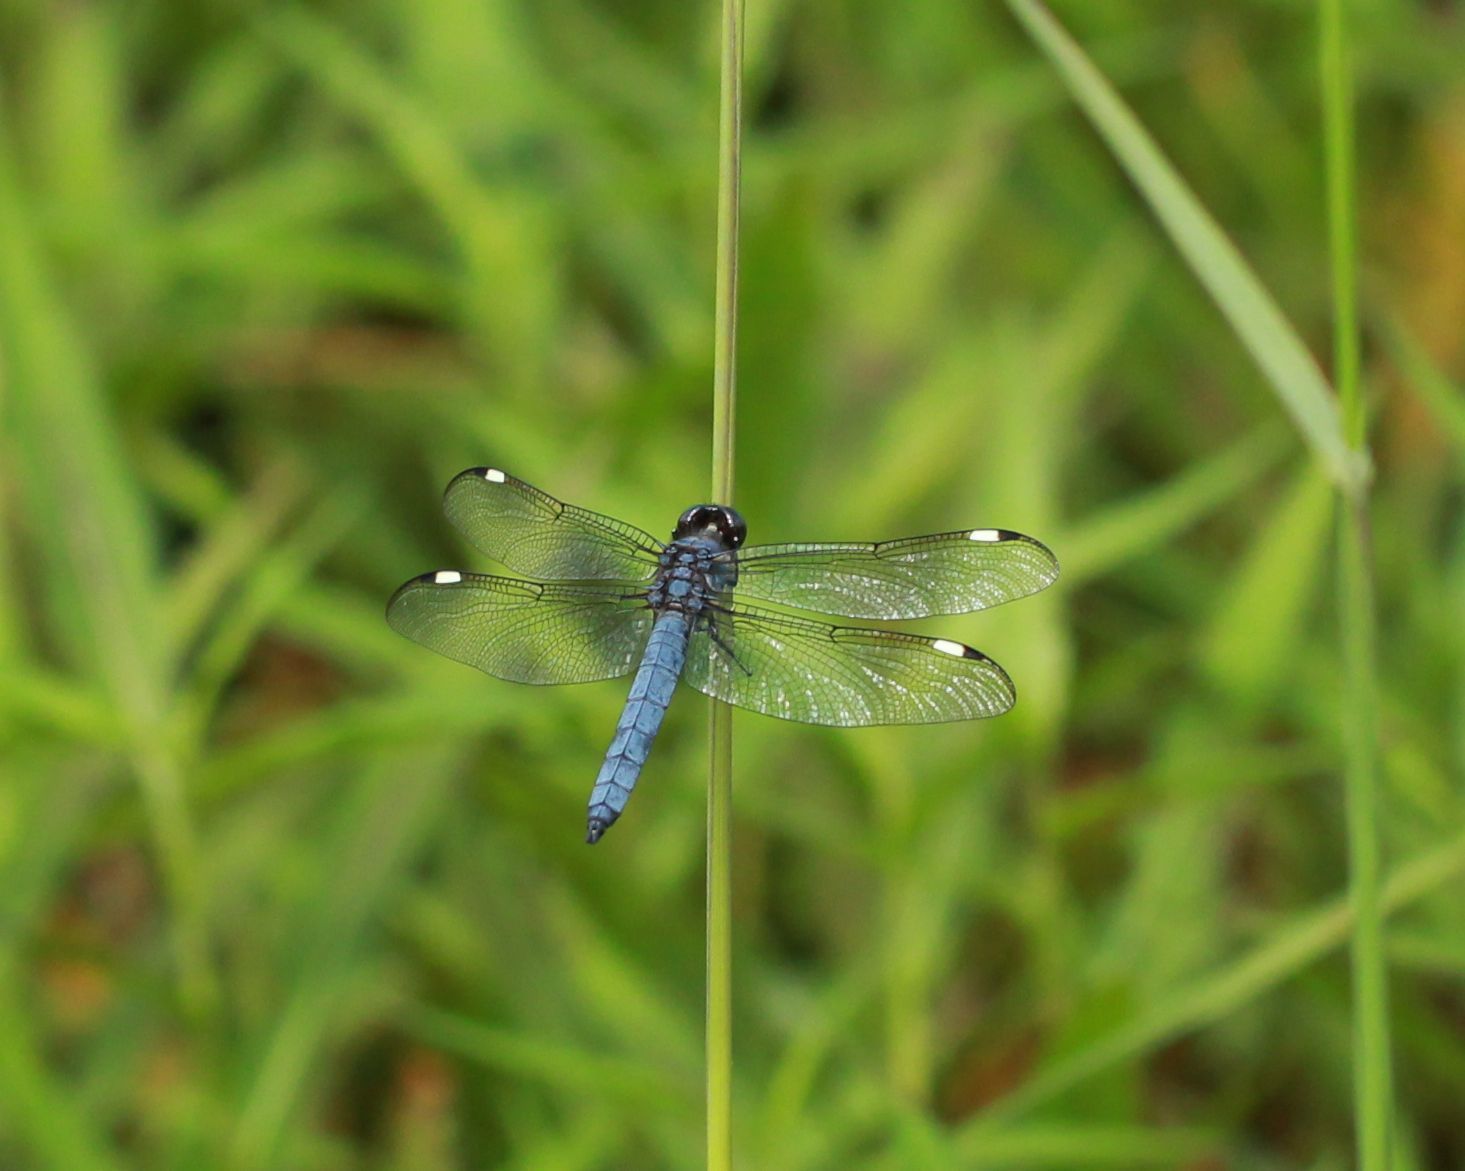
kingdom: Animalia
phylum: Arthropoda
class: Insecta
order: Odonata
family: Libellulidae
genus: Libellula
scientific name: Libellula cyanea
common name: Spangled skimmer
